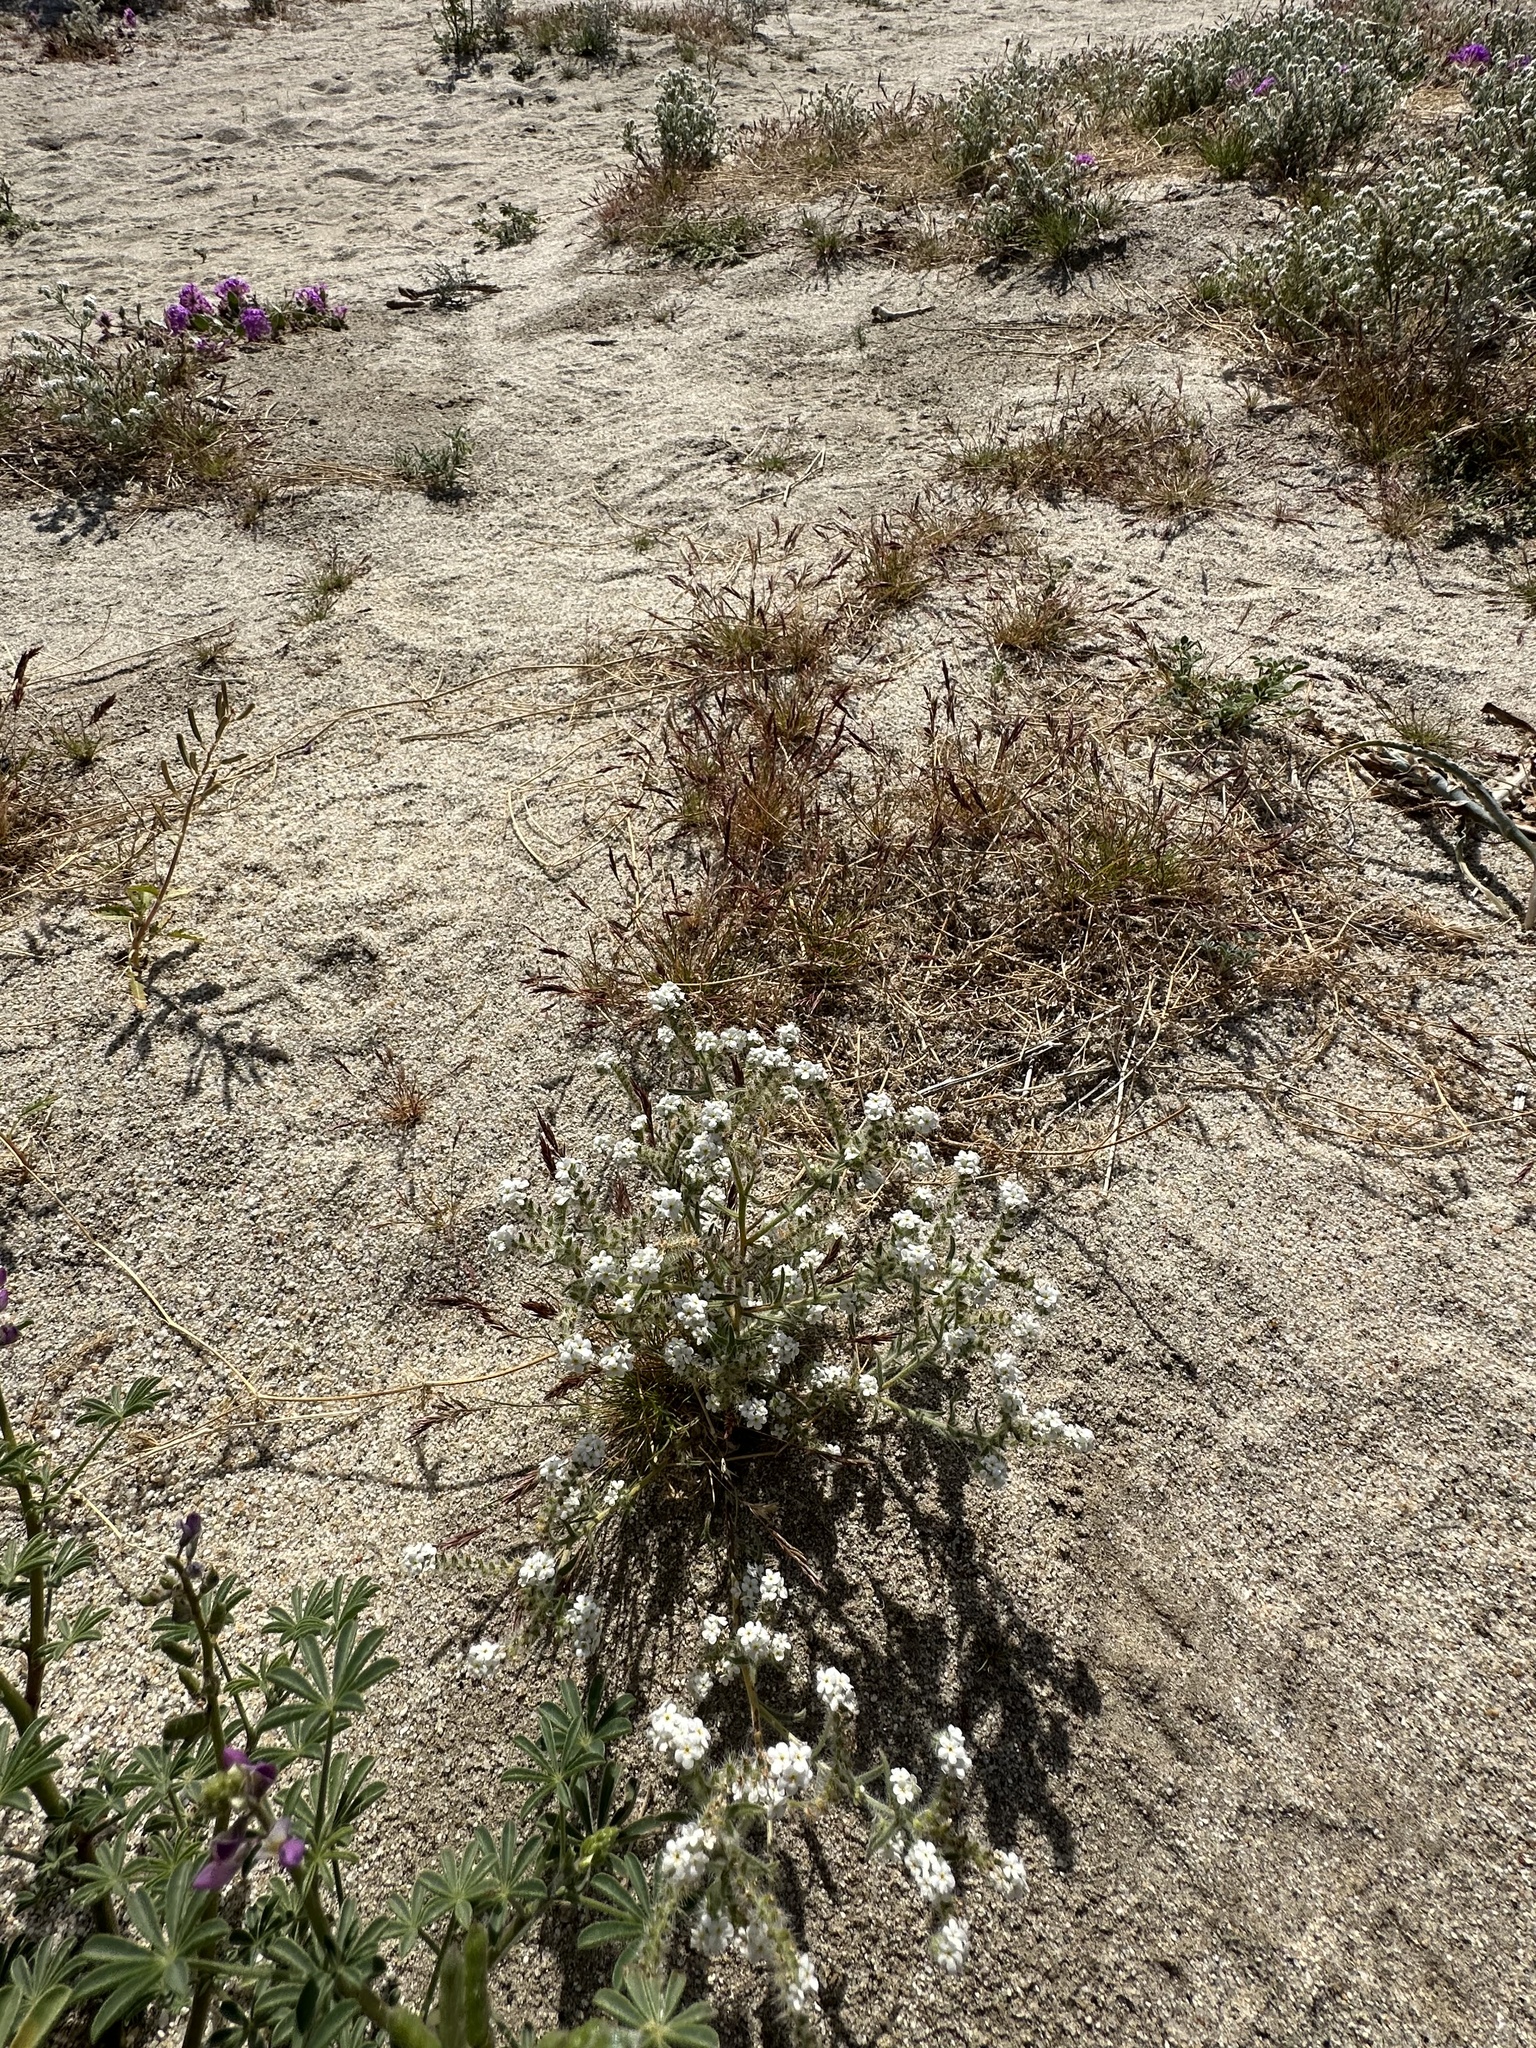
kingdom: Plantae
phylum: Tracheophyta
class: Magnoliopsida
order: Boraginales
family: Boraginaceae
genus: Johnstonella
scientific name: Johnstonella angustifolia
